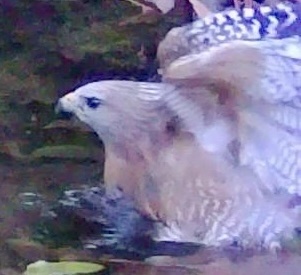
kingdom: Animalia
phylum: Chordata
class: Aves
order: Accipitriformes
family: Accipitridae
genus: Buteo
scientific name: Buteo lineatus
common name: Red-shouldered hawk
